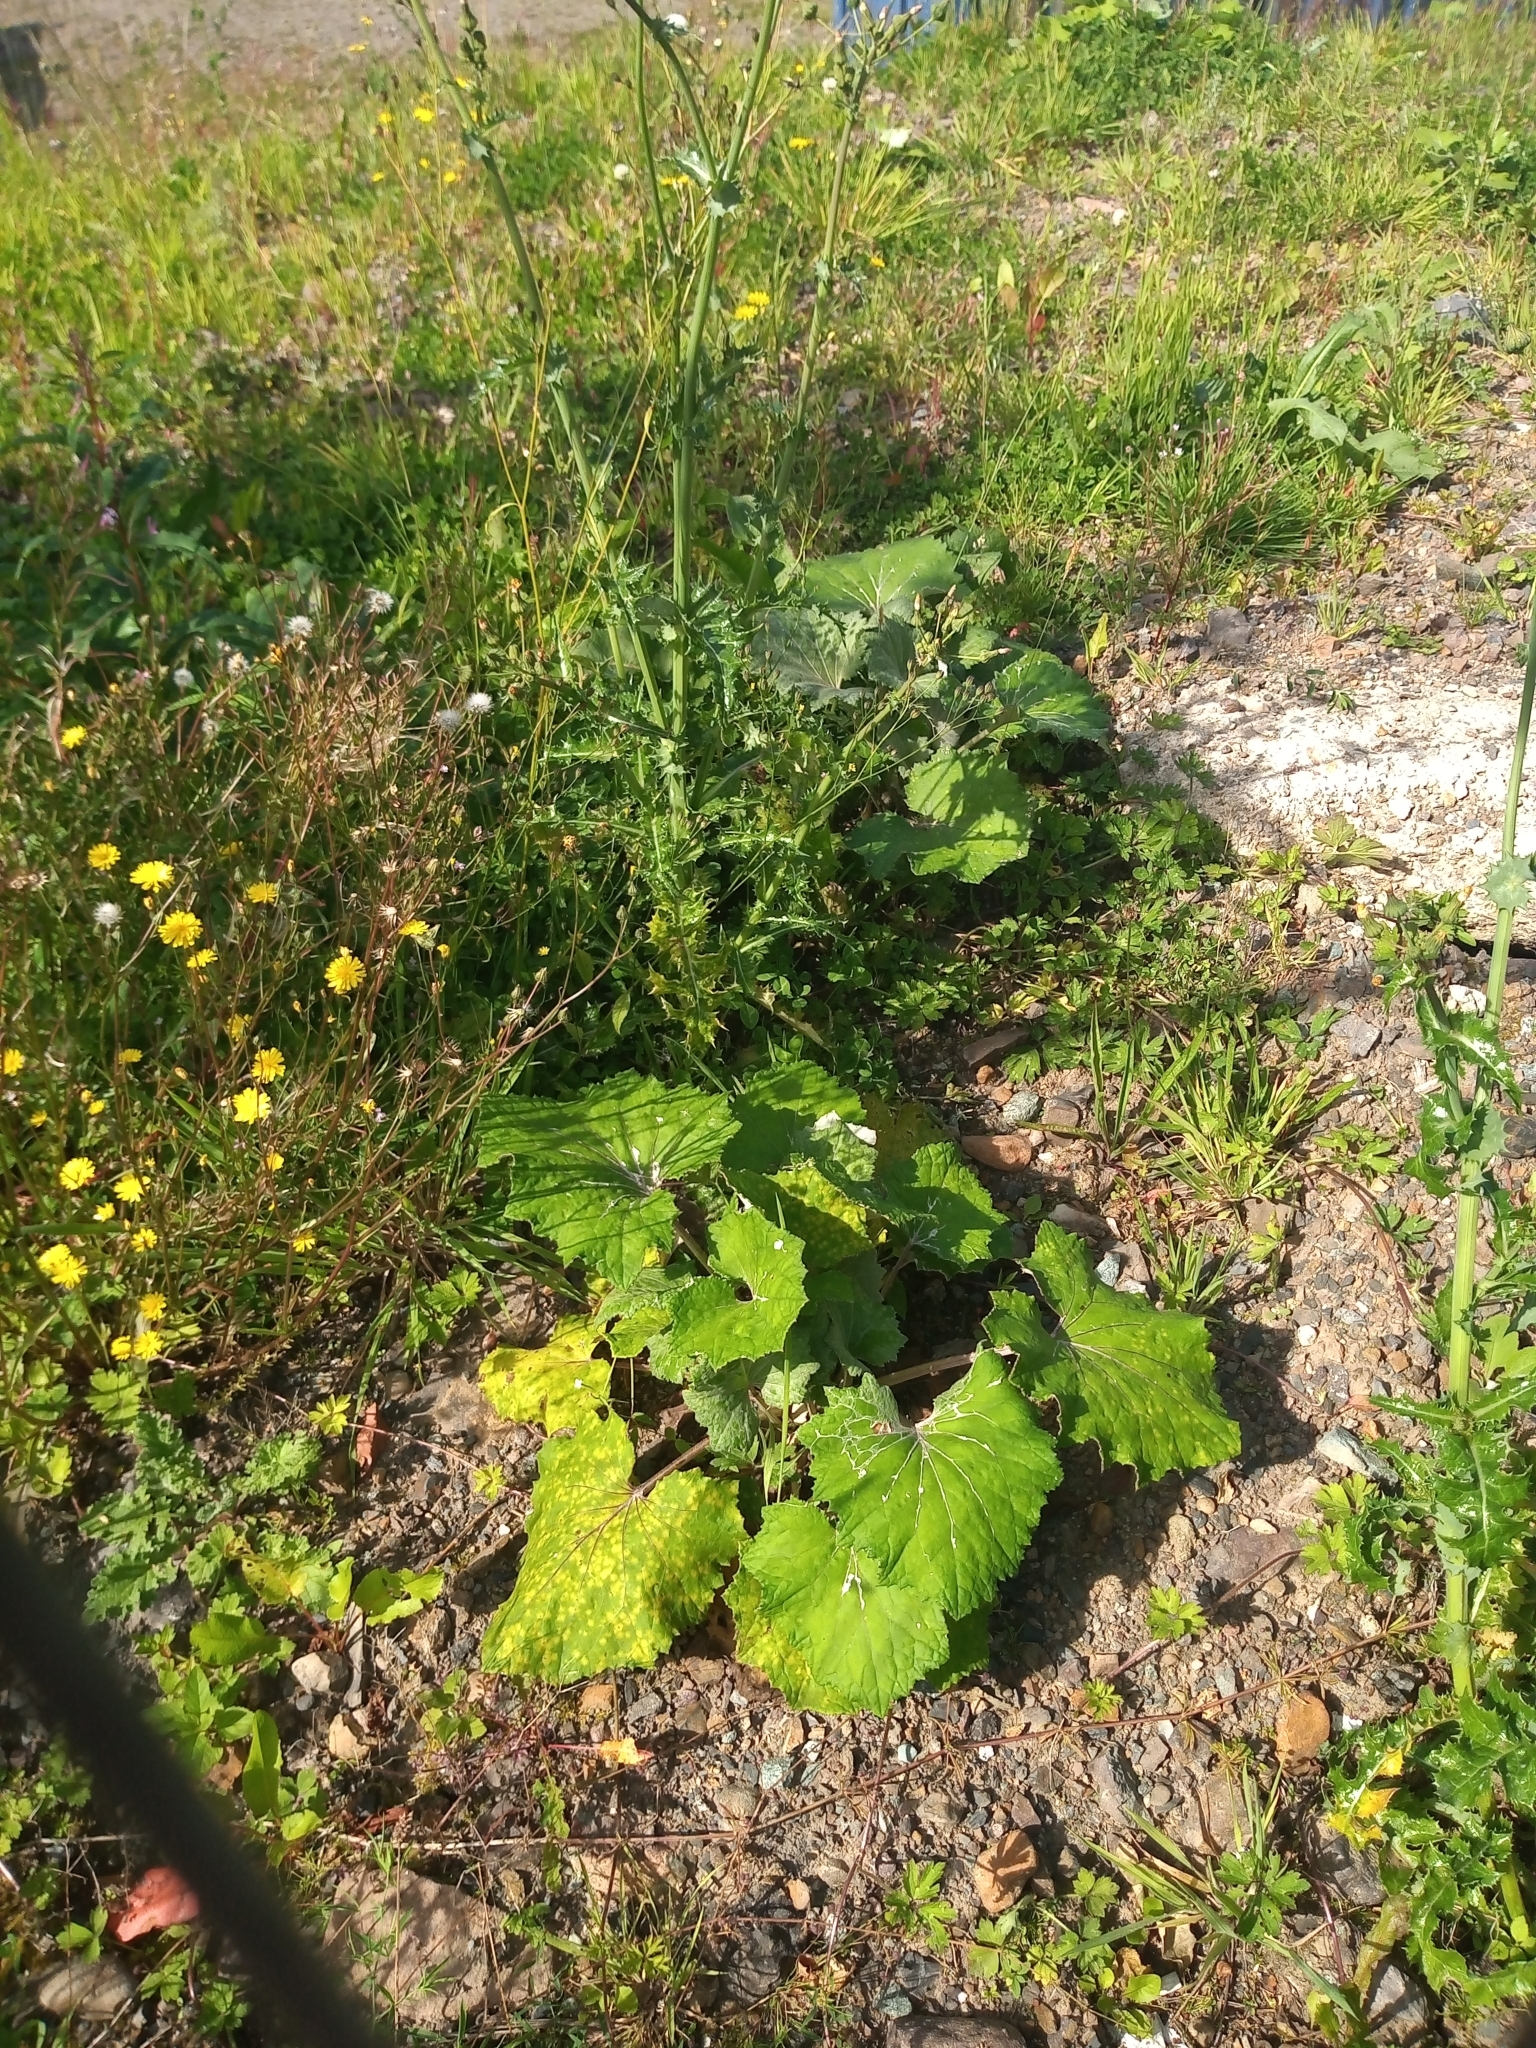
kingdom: Plantae
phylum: Tracheophyta
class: Magnoliopsida
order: Asterales
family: Asteraceae
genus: Tussilago
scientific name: Tussilago farfara
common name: Coltsfoot
